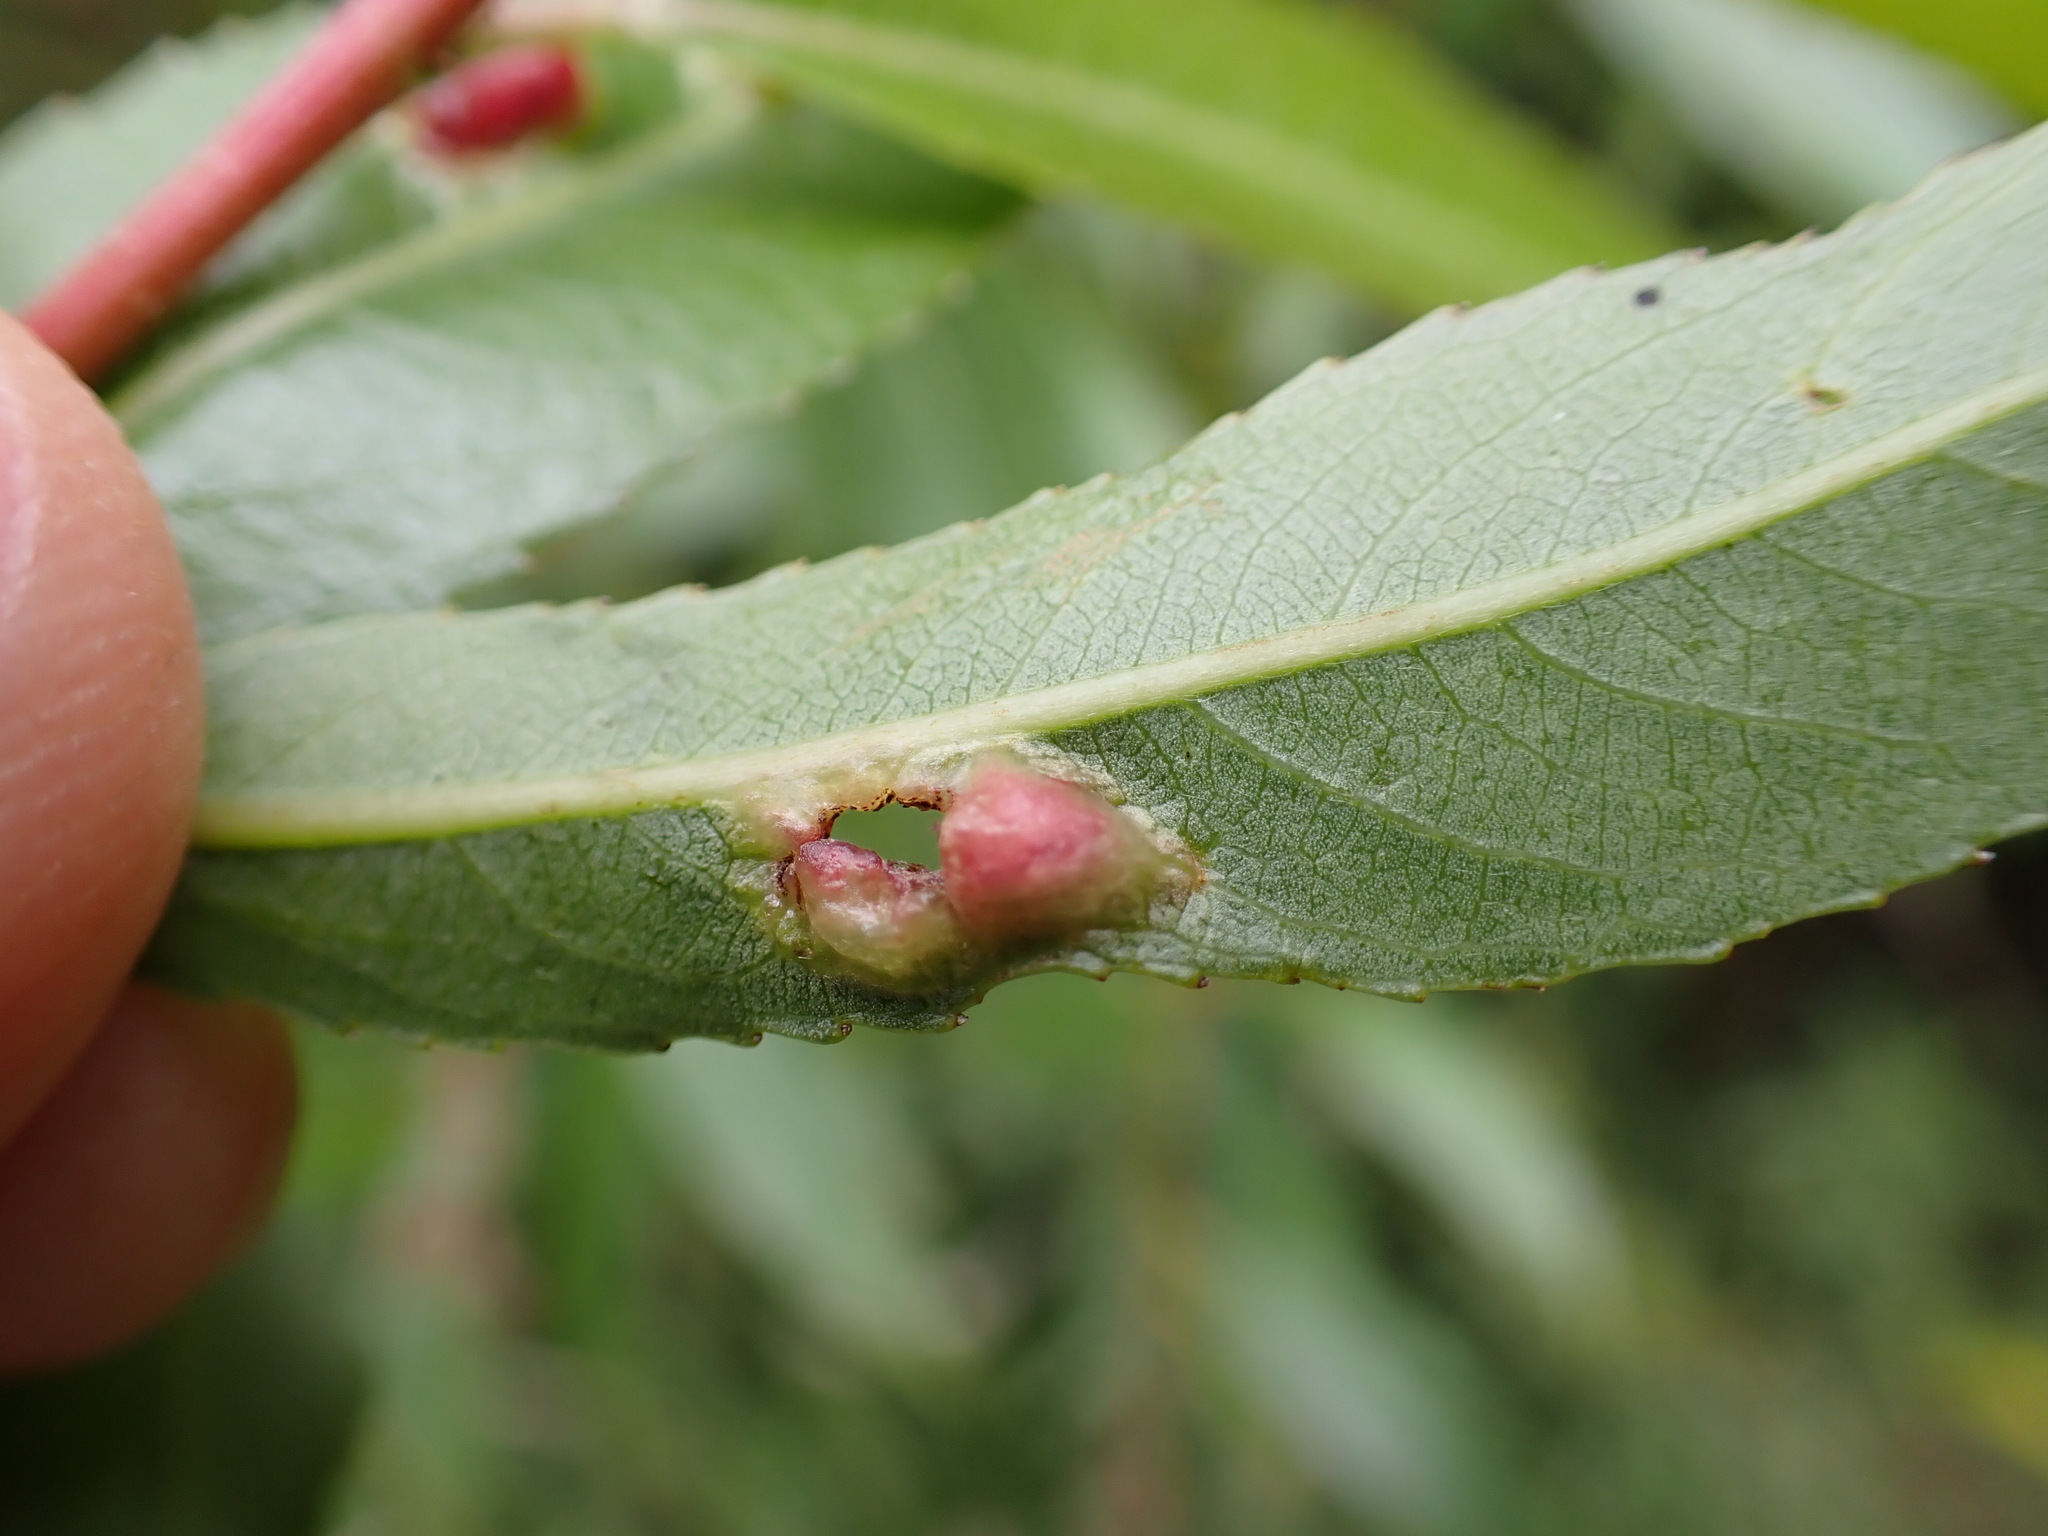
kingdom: Animalia
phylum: Arthropoda
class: Insecta
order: Hymenoptera
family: Tenthredinidae
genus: Pontania
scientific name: Pontania proxima
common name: Common sawfly
